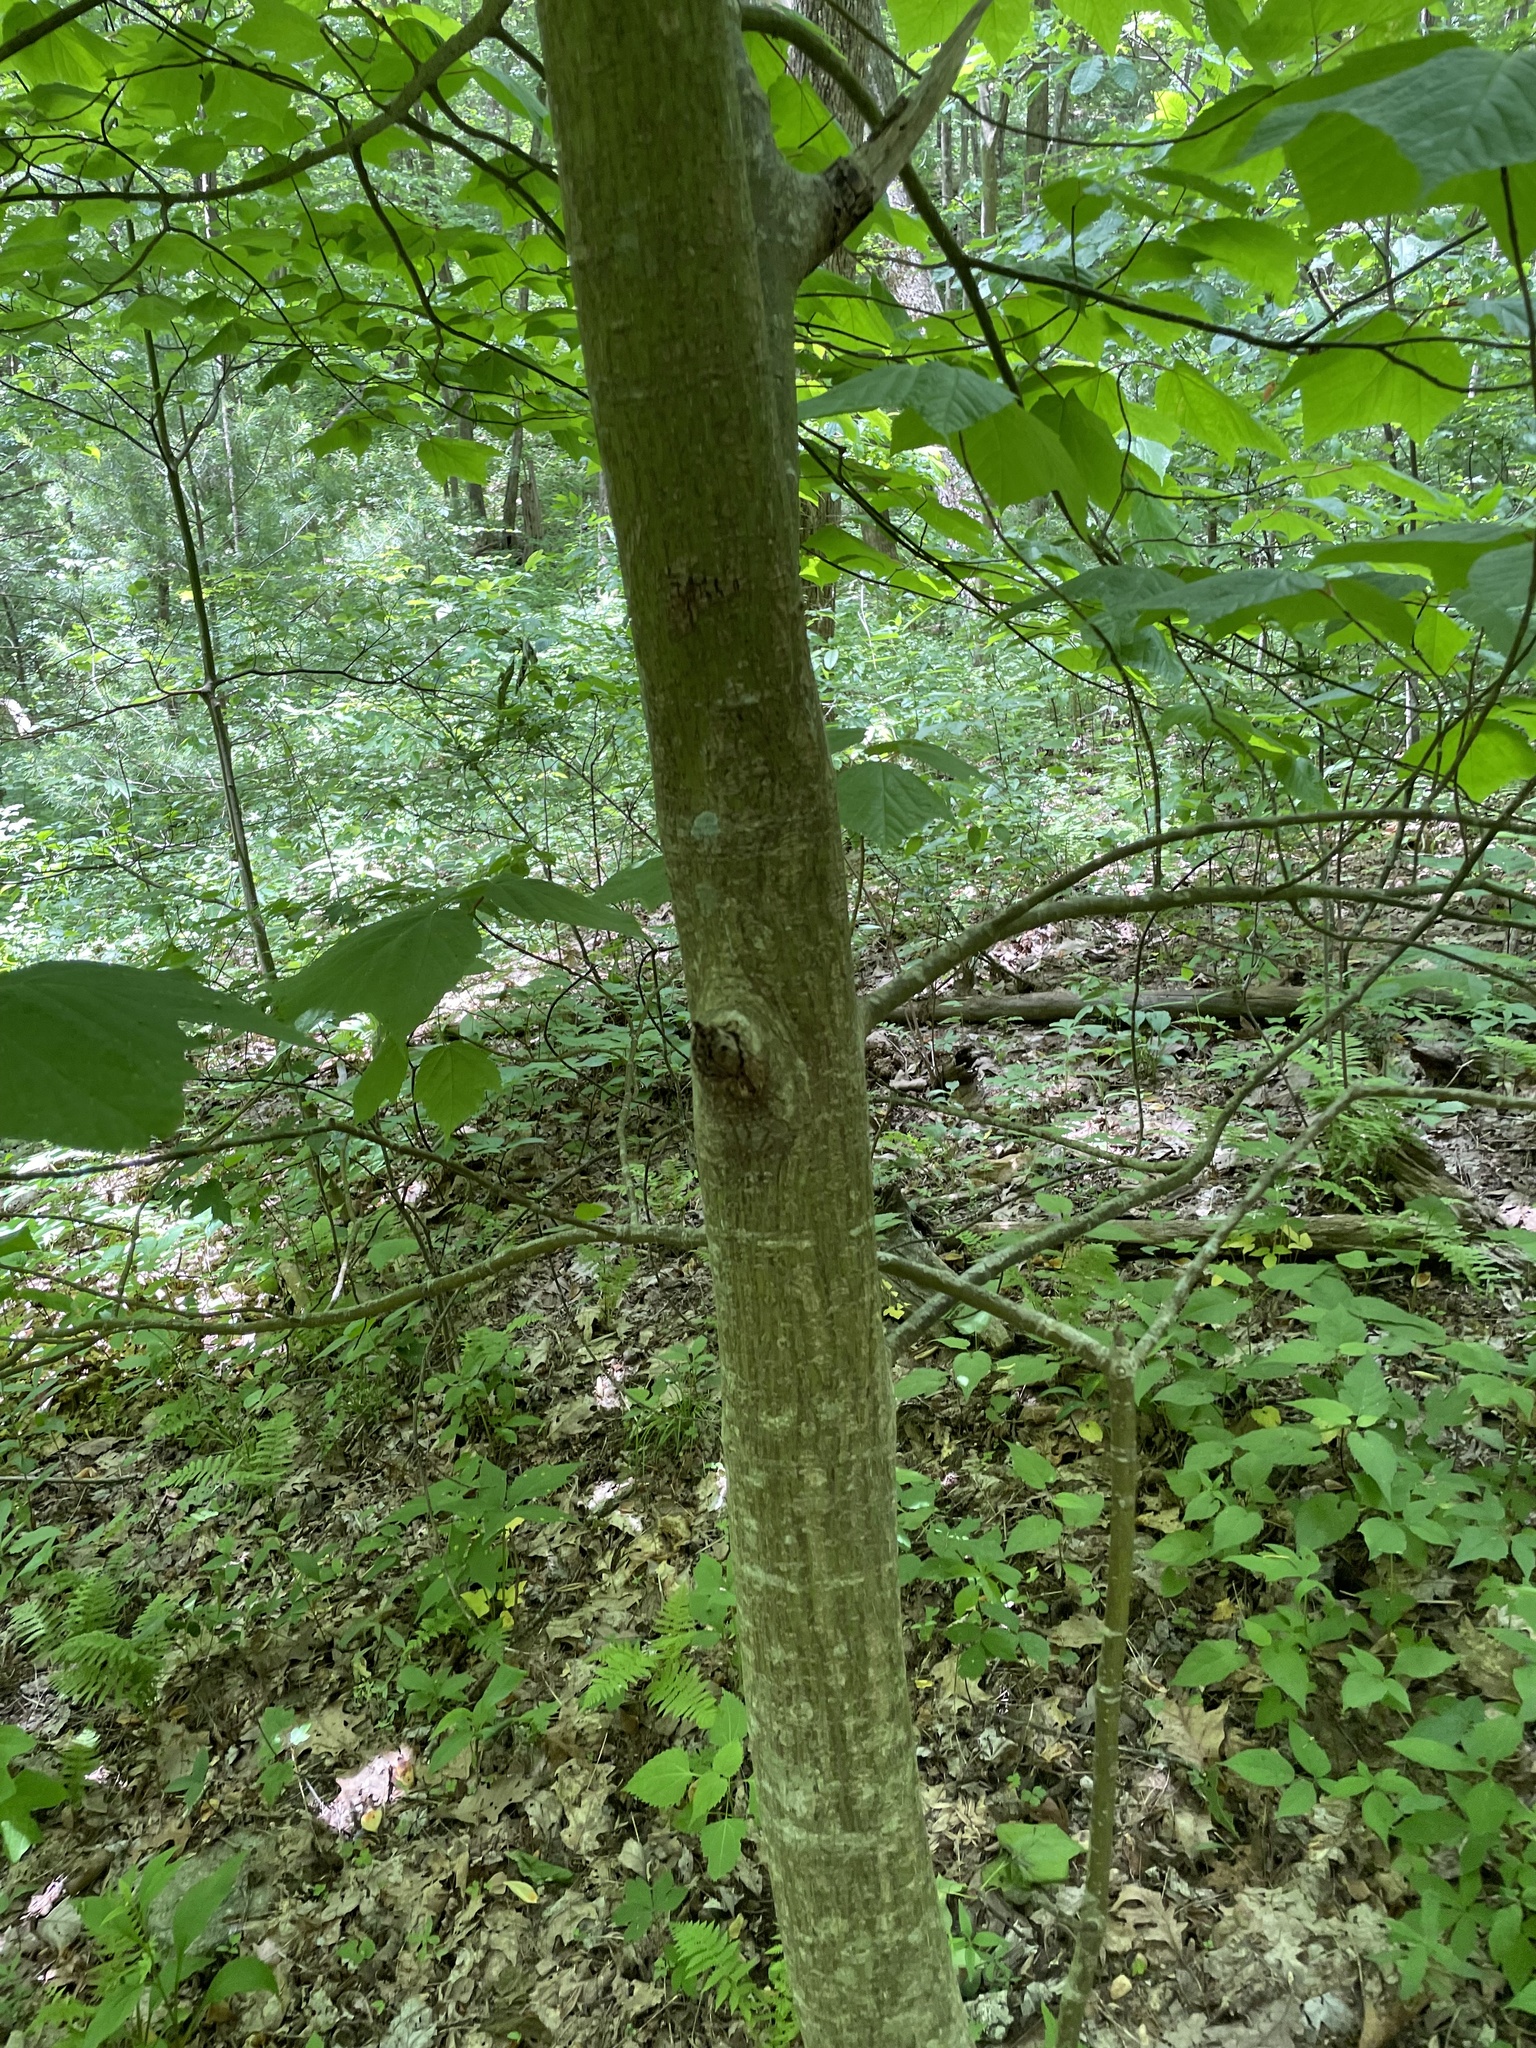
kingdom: Plantae
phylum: Tracheophyta
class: Magnoliopsida
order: Sapindales
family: Sapindaceae
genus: Acer
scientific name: Acer pensylvanicum
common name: Moosewood
